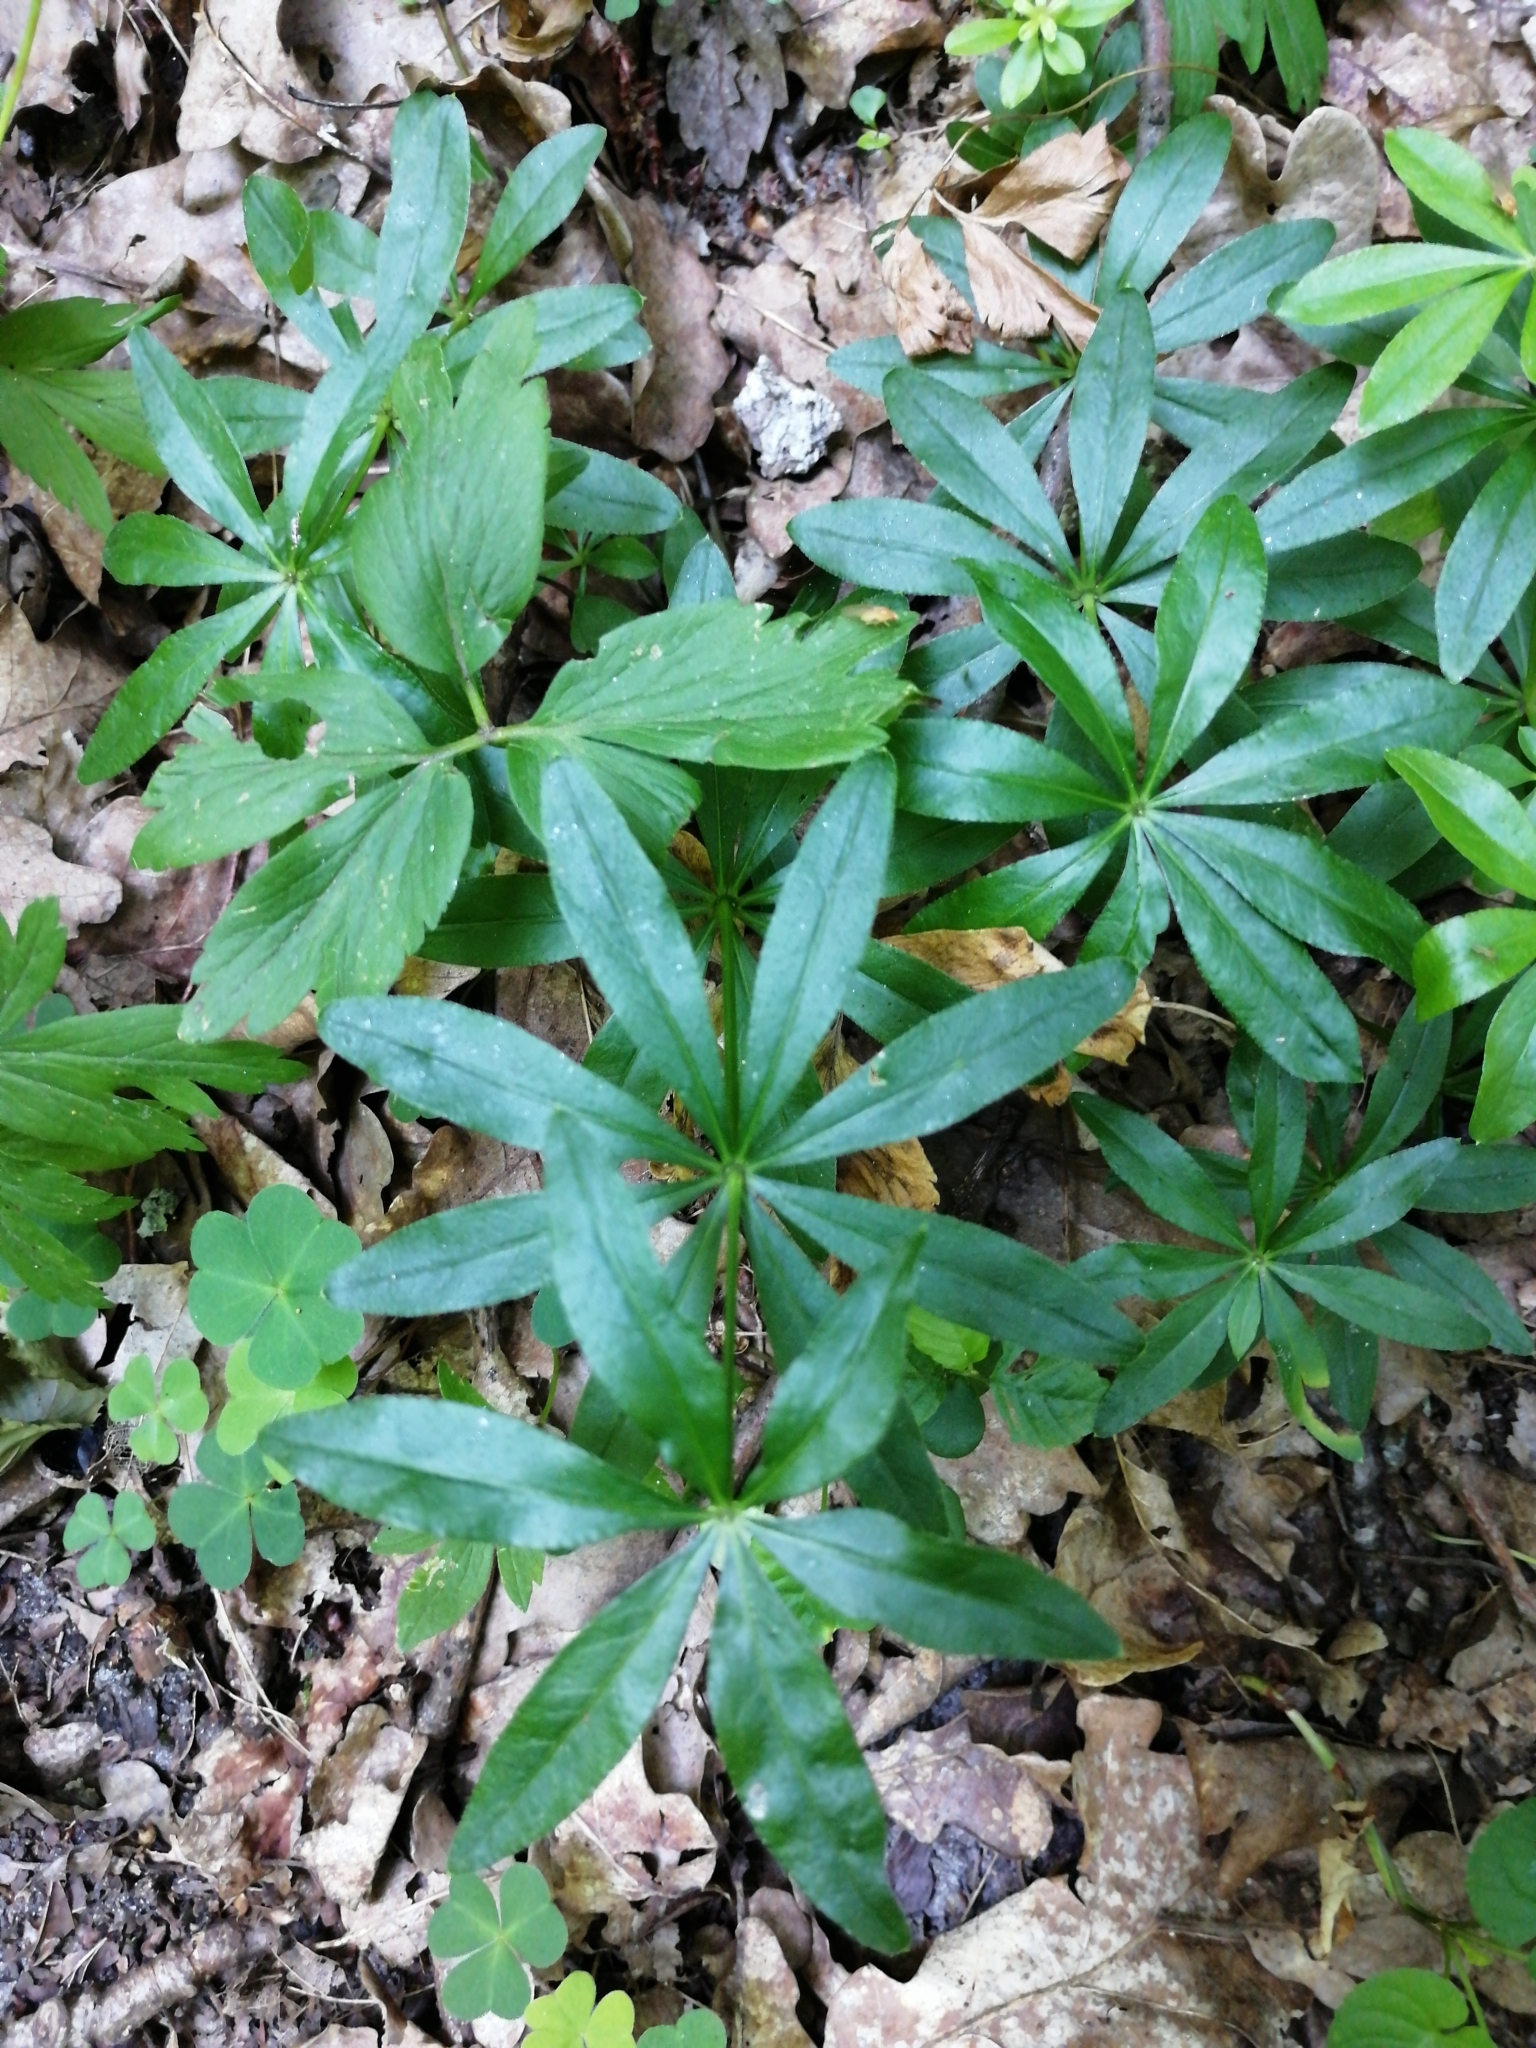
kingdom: Plantae
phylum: Tracheophyta
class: Magnoliopsida
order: Gentianales
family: Rubiaceae
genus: Galium
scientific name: Galium odoratum
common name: Sweet woodruff
